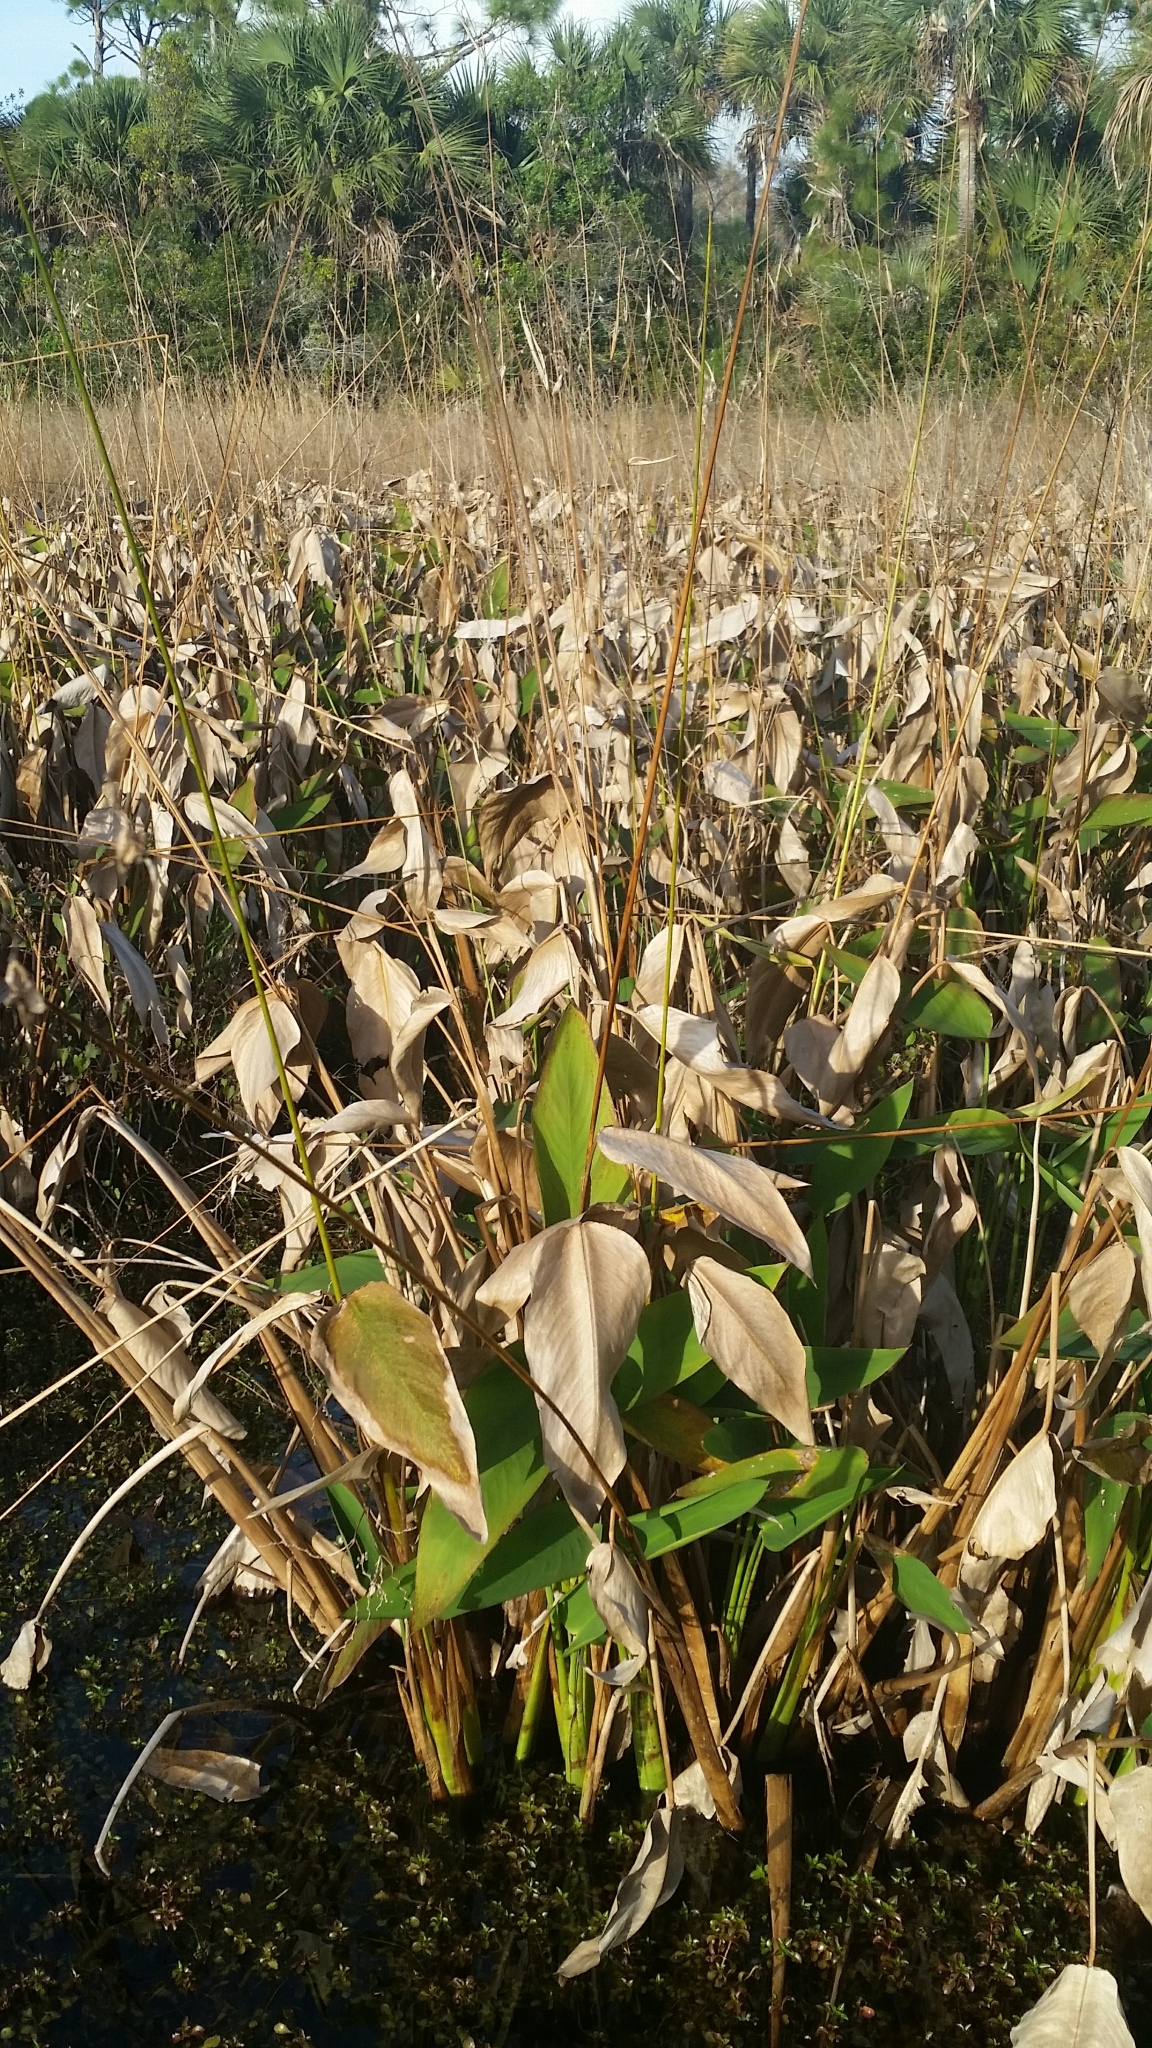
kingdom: Plantae
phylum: Tracheophyta
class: Liliopsida
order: Zingiberales
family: Marantaceae
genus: Thalia
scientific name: Thalia geniculata
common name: Arrowroot
